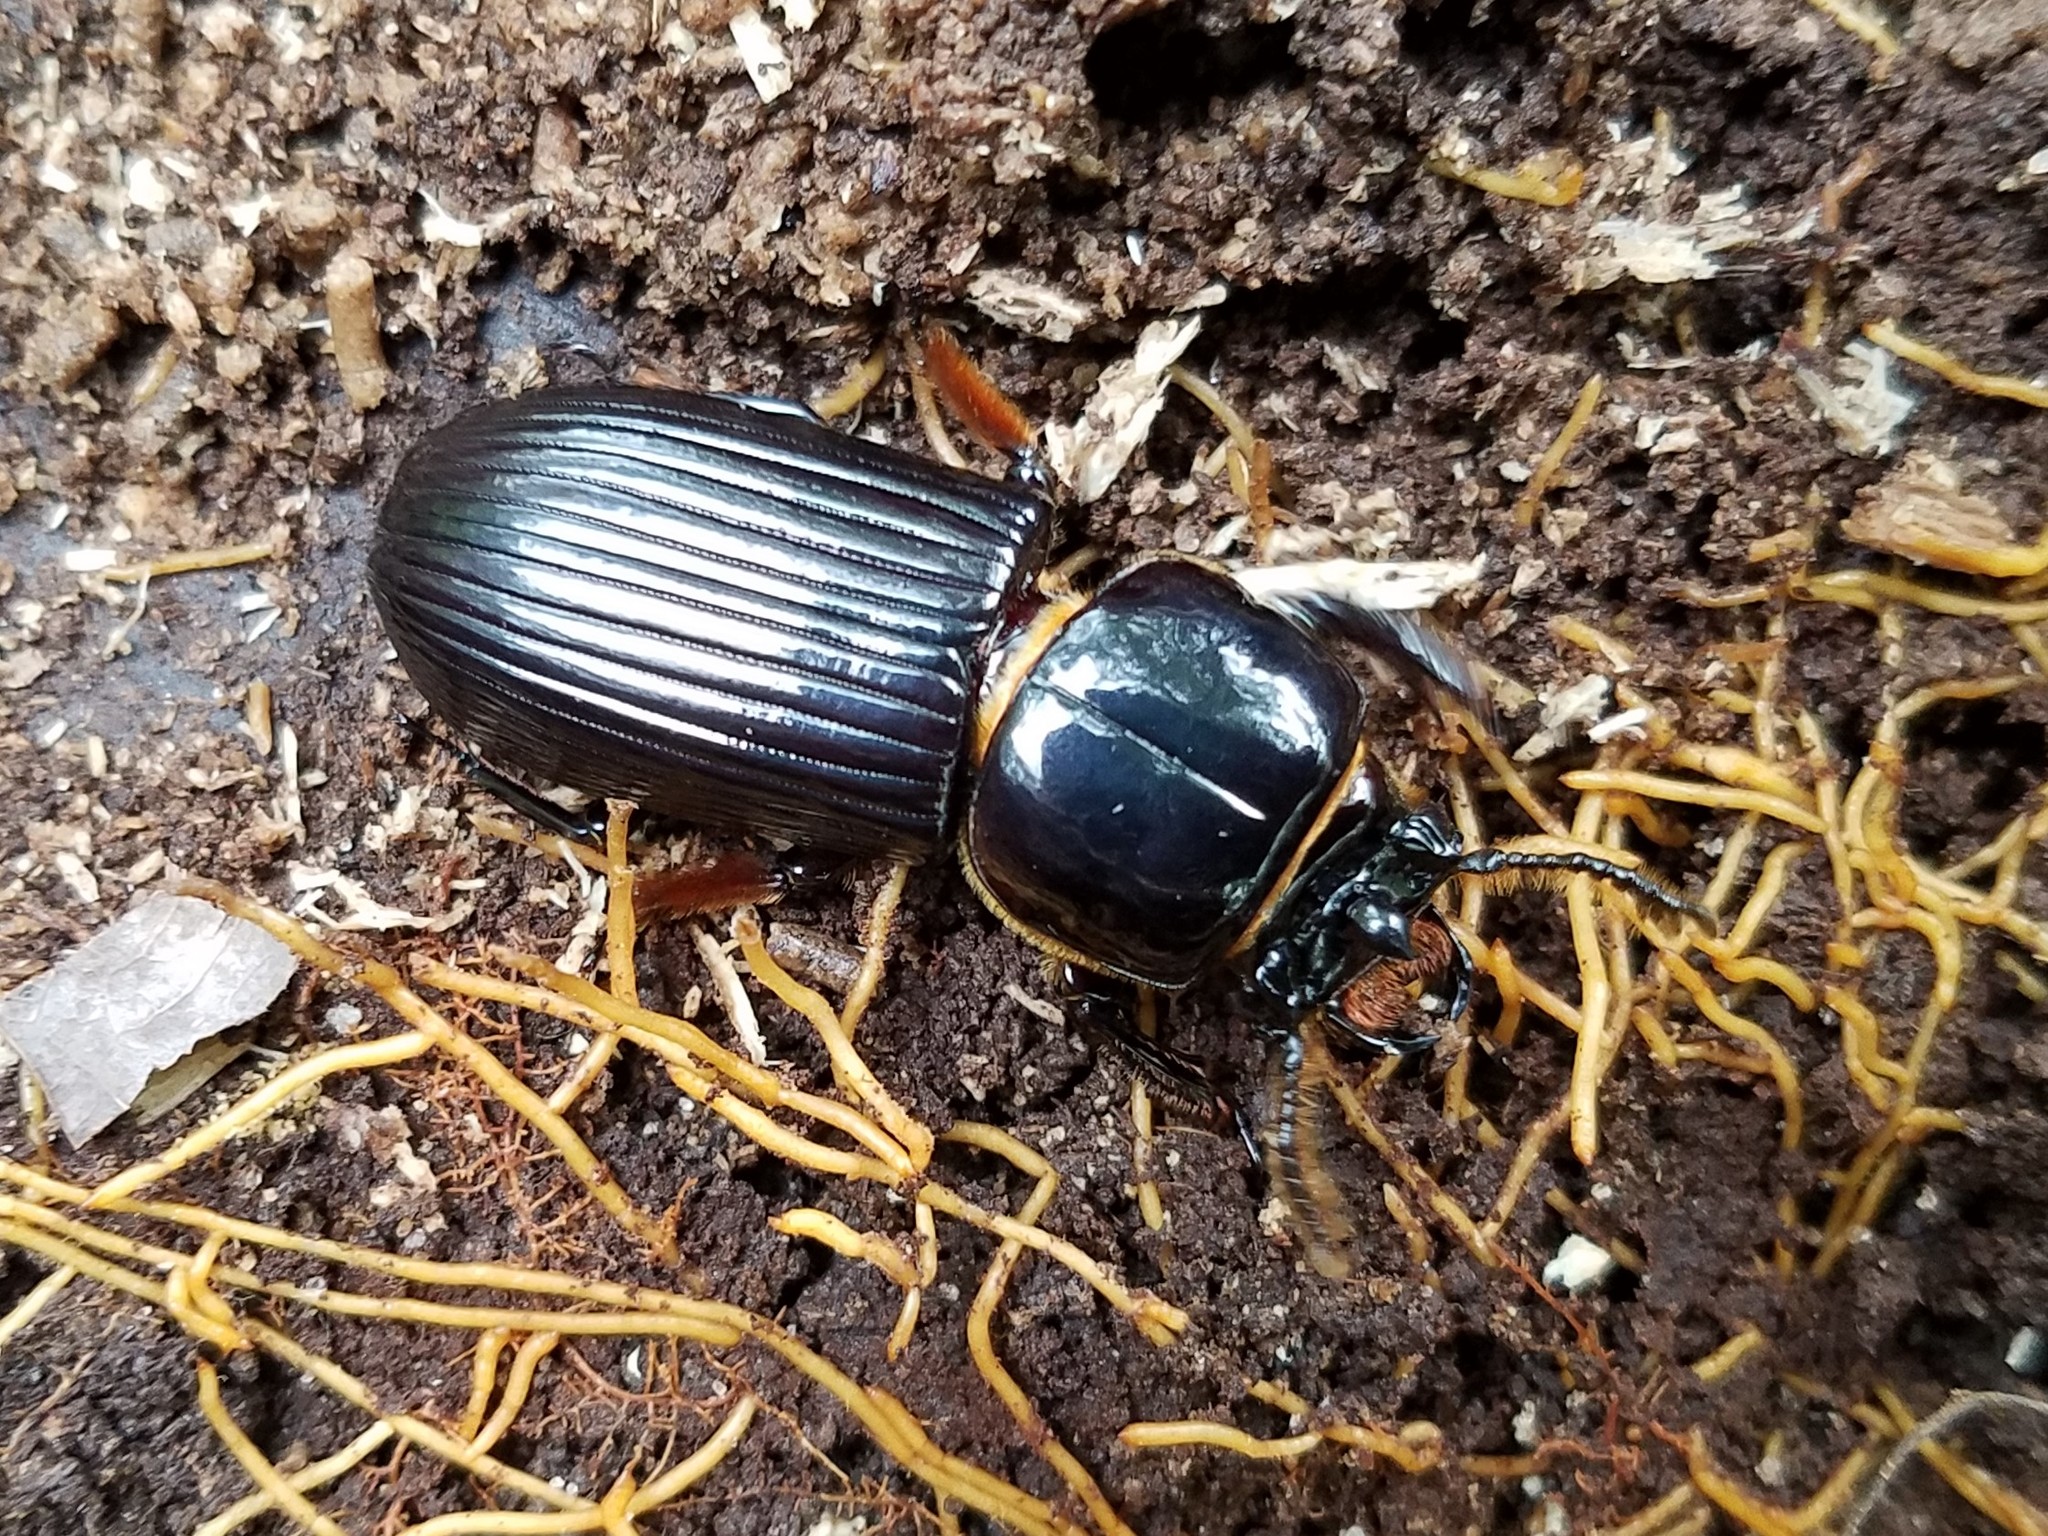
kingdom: Animalia
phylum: Arthropoda
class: Insecta
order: Coleoptera
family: Passalidae
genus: Odontotaenius
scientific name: Odontotaenius disjunctus
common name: Patent leather beetle
